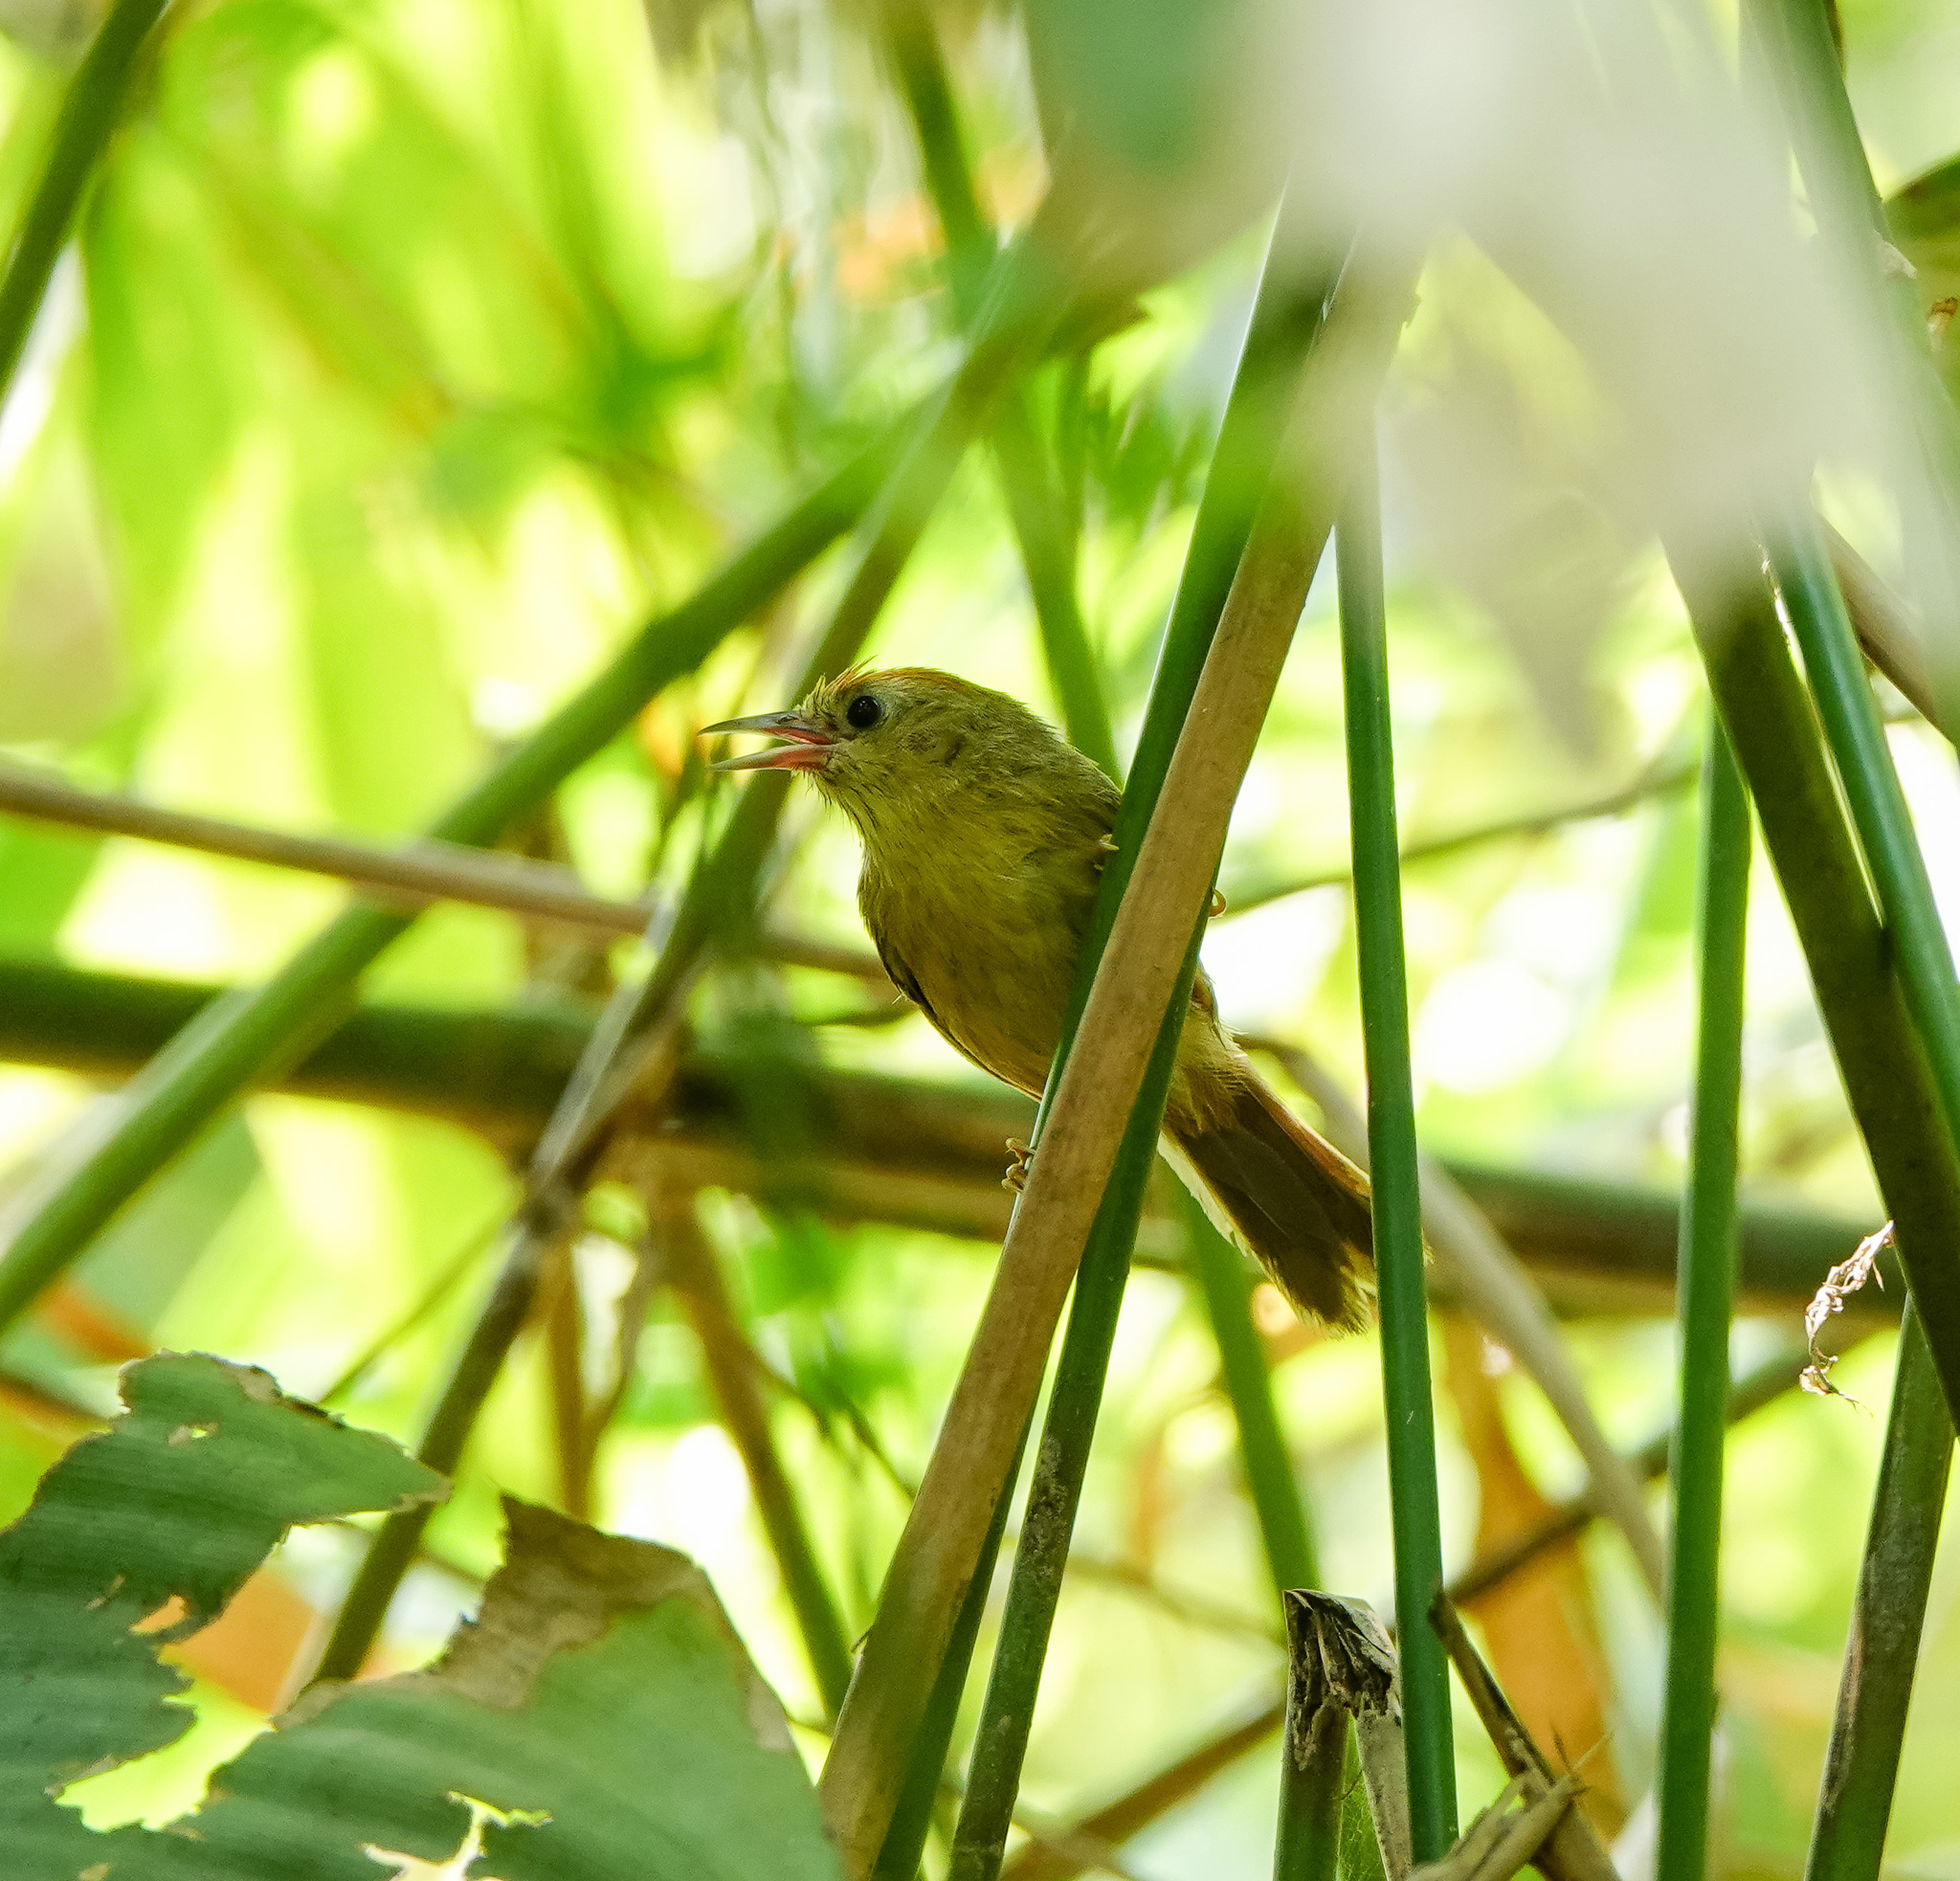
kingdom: Animalia
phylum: Chordata
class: Aves
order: Passeriformes
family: Timaliidae
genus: Stachyridopsis
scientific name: Stachyridopsis rufifrons
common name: Rufous-fronted babbler
